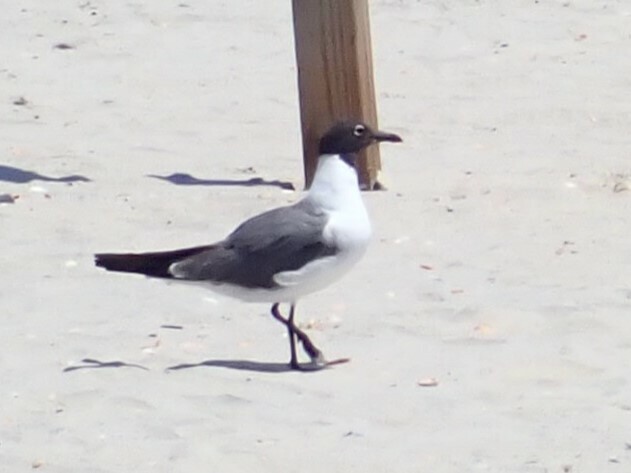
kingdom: Animalia
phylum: Chordata
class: Aves
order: Charadriiformes
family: Laridae
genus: Leucophaeus
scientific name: Leucophaeus atricilla
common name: Laughing gull
